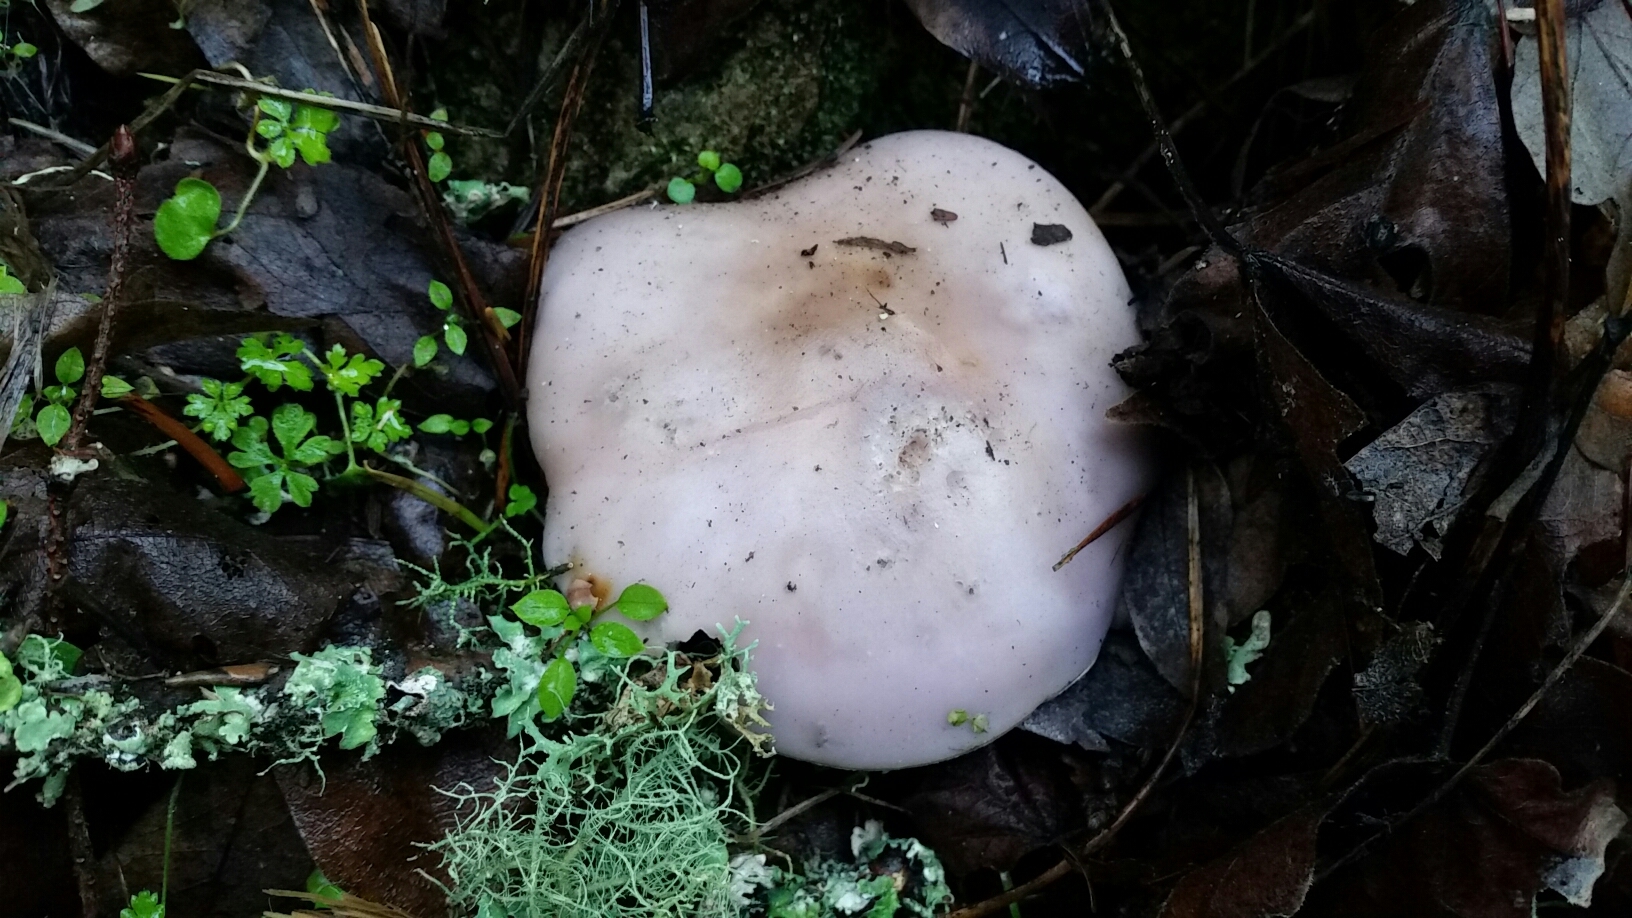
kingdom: Fungi
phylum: Basidiomycota
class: Agaricomycetes
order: Agaricales
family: Tricholomataceae
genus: Collybia
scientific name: Collybia
